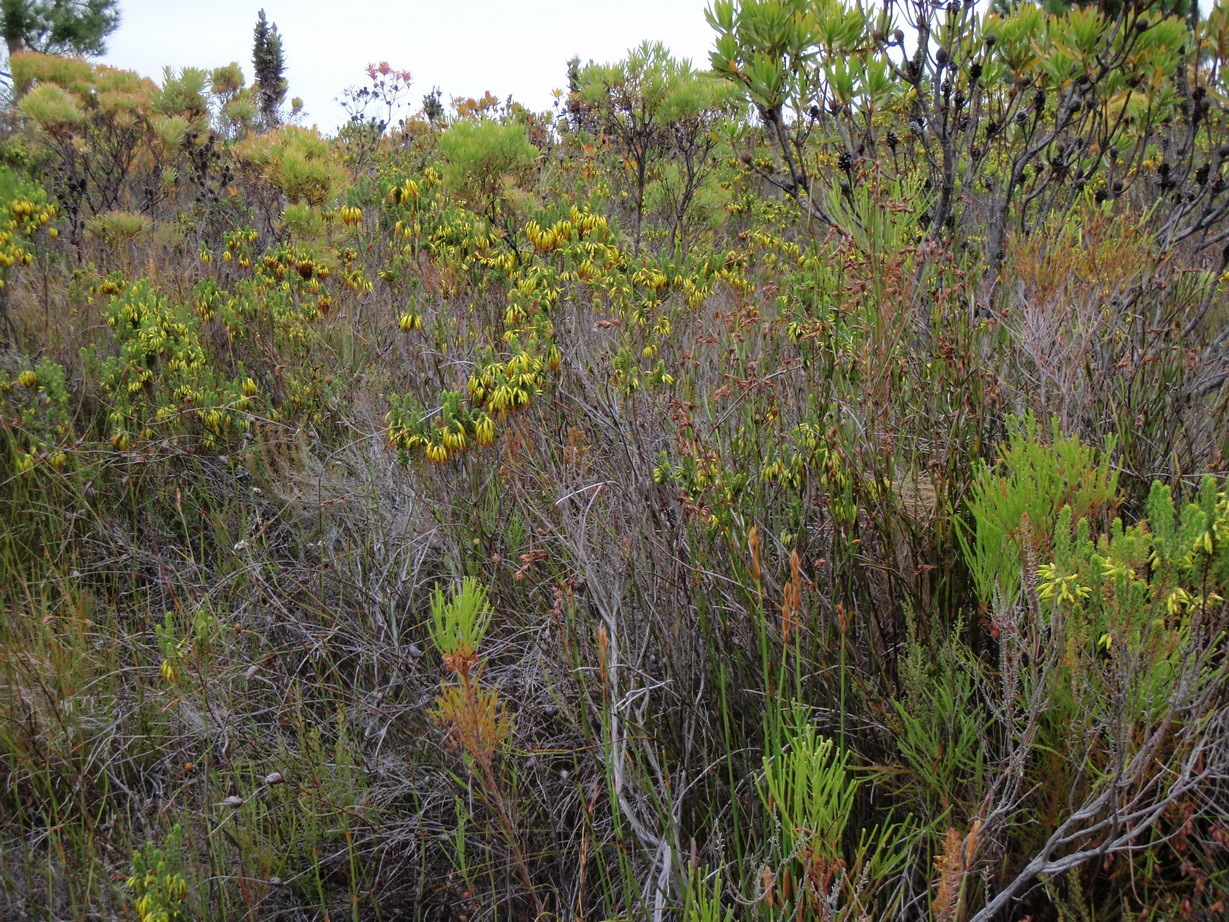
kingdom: Plantae
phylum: Tracheophyta
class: Magnoliopsida
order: Ericales
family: Ericaceae
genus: Erica
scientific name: Erica coccinea
